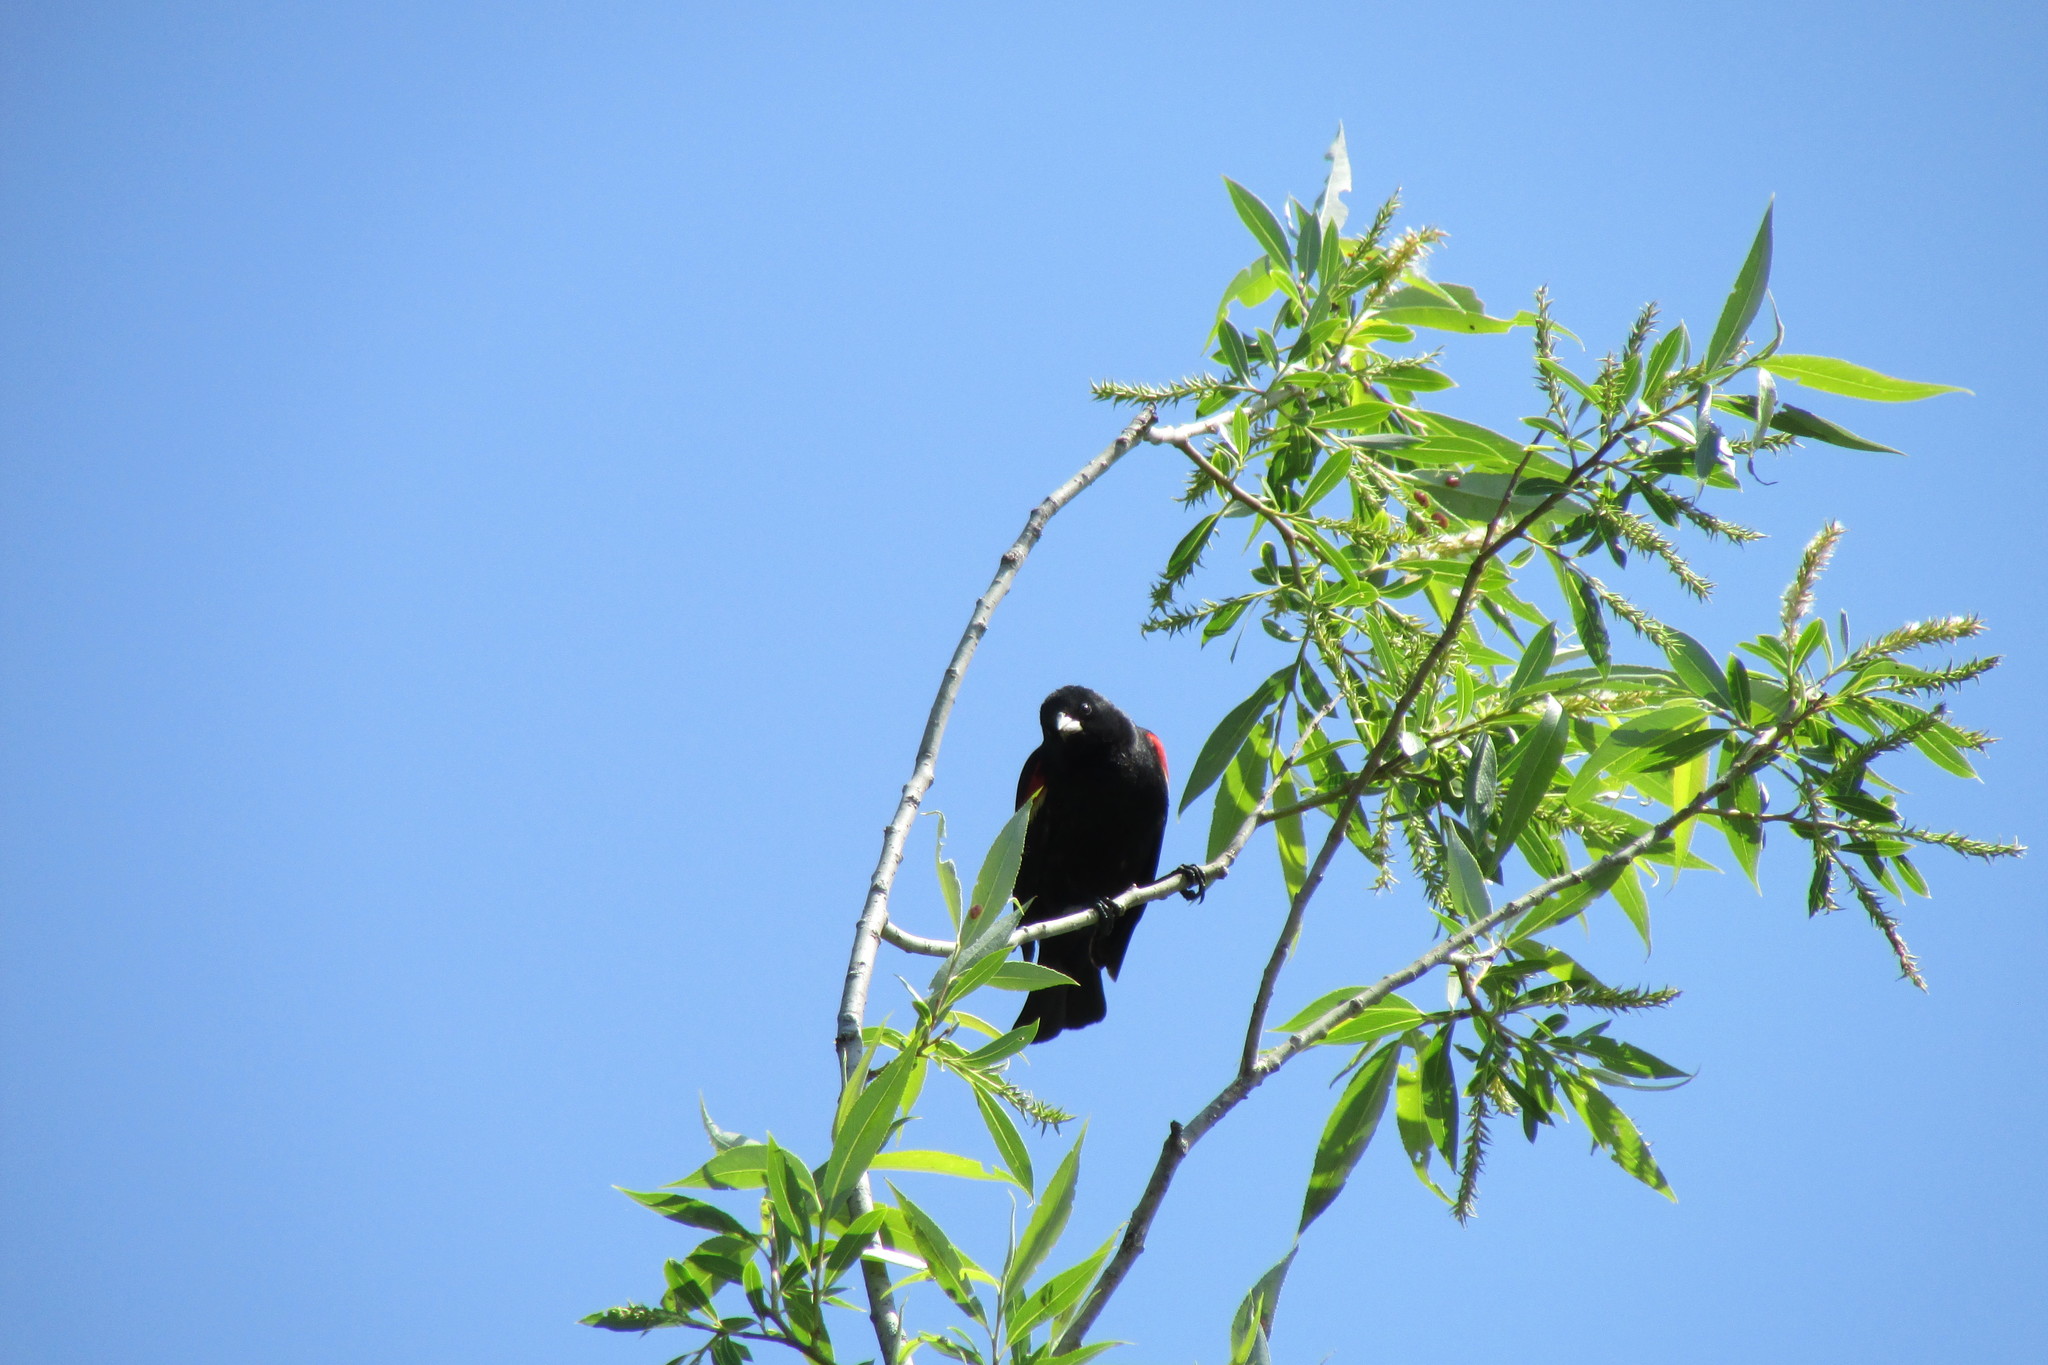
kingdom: Animalia
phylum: Chordata
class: Aves
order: Passeriformes
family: Icteridae
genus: Agelaius
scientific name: Agelaius phoeniceus
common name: Red-winged blackbird
